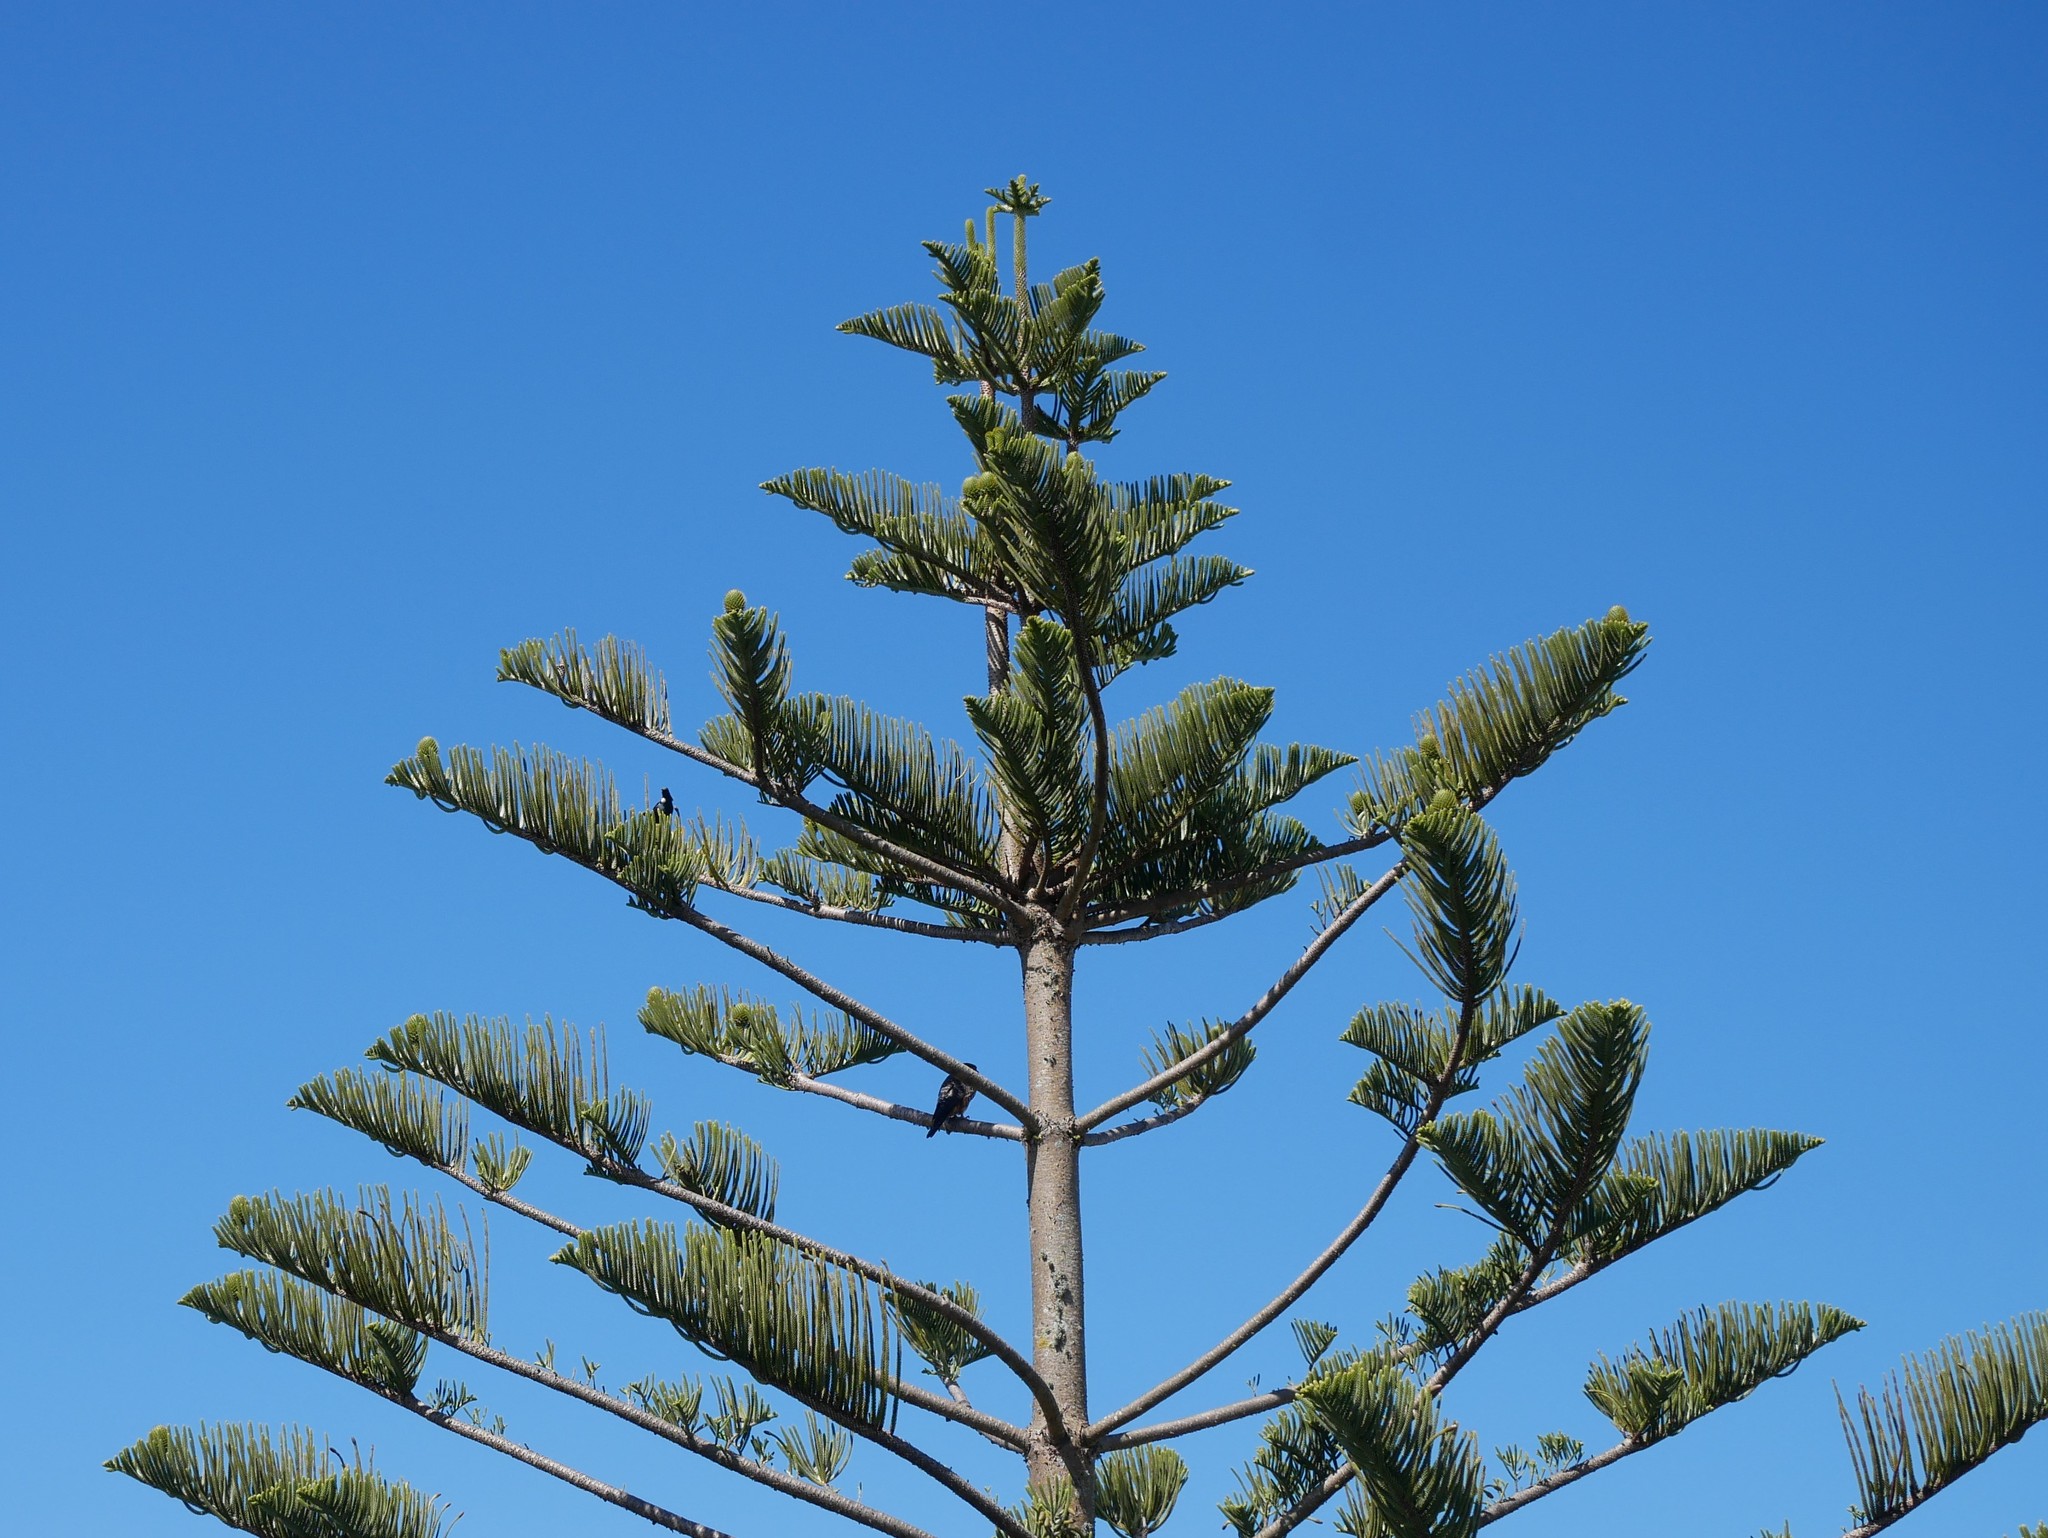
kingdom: Animalia
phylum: Chordata
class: Aves
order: Falconiformes
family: Falconidae
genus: Falco
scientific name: Falco novaeseelandiae
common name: New zealand falcon
